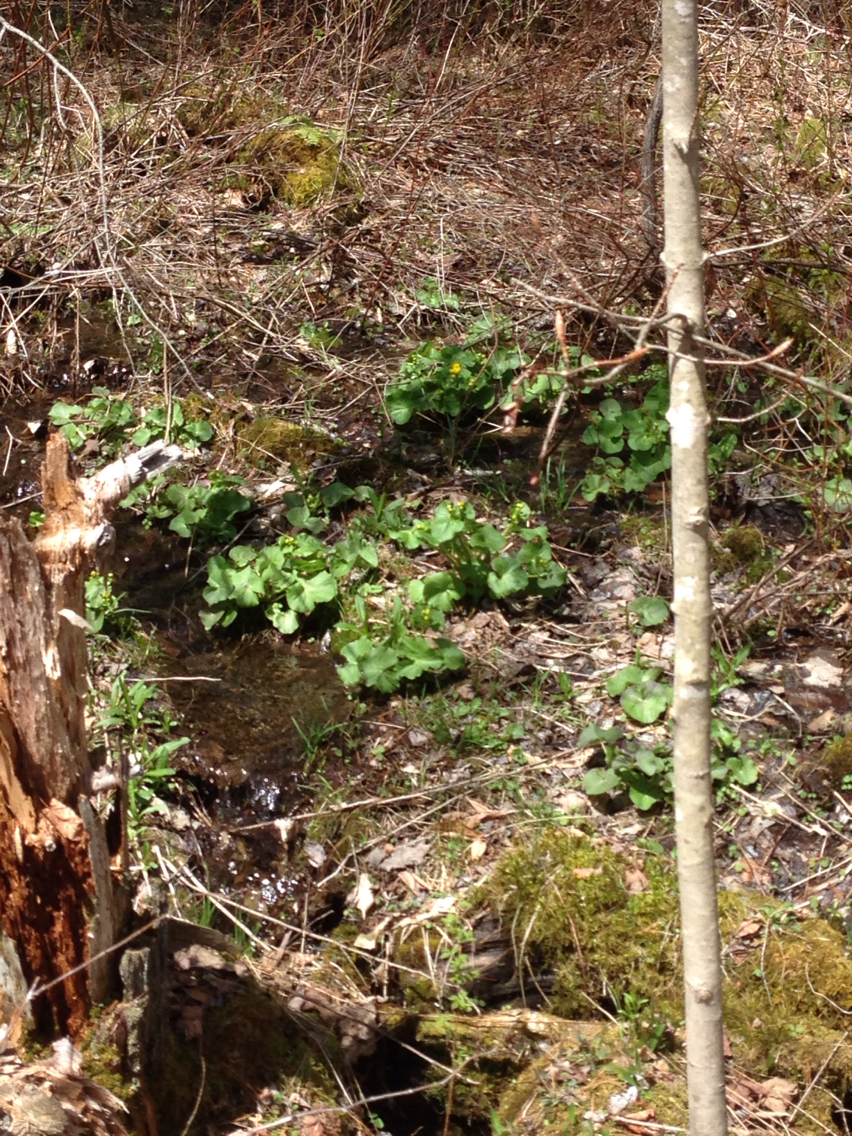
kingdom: Plantae
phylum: Tracheophyta
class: Magnoliopsida
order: Ranunculales
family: Ranunculaceae
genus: Caltha
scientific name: Caltha palustris
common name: Marsh marigold
